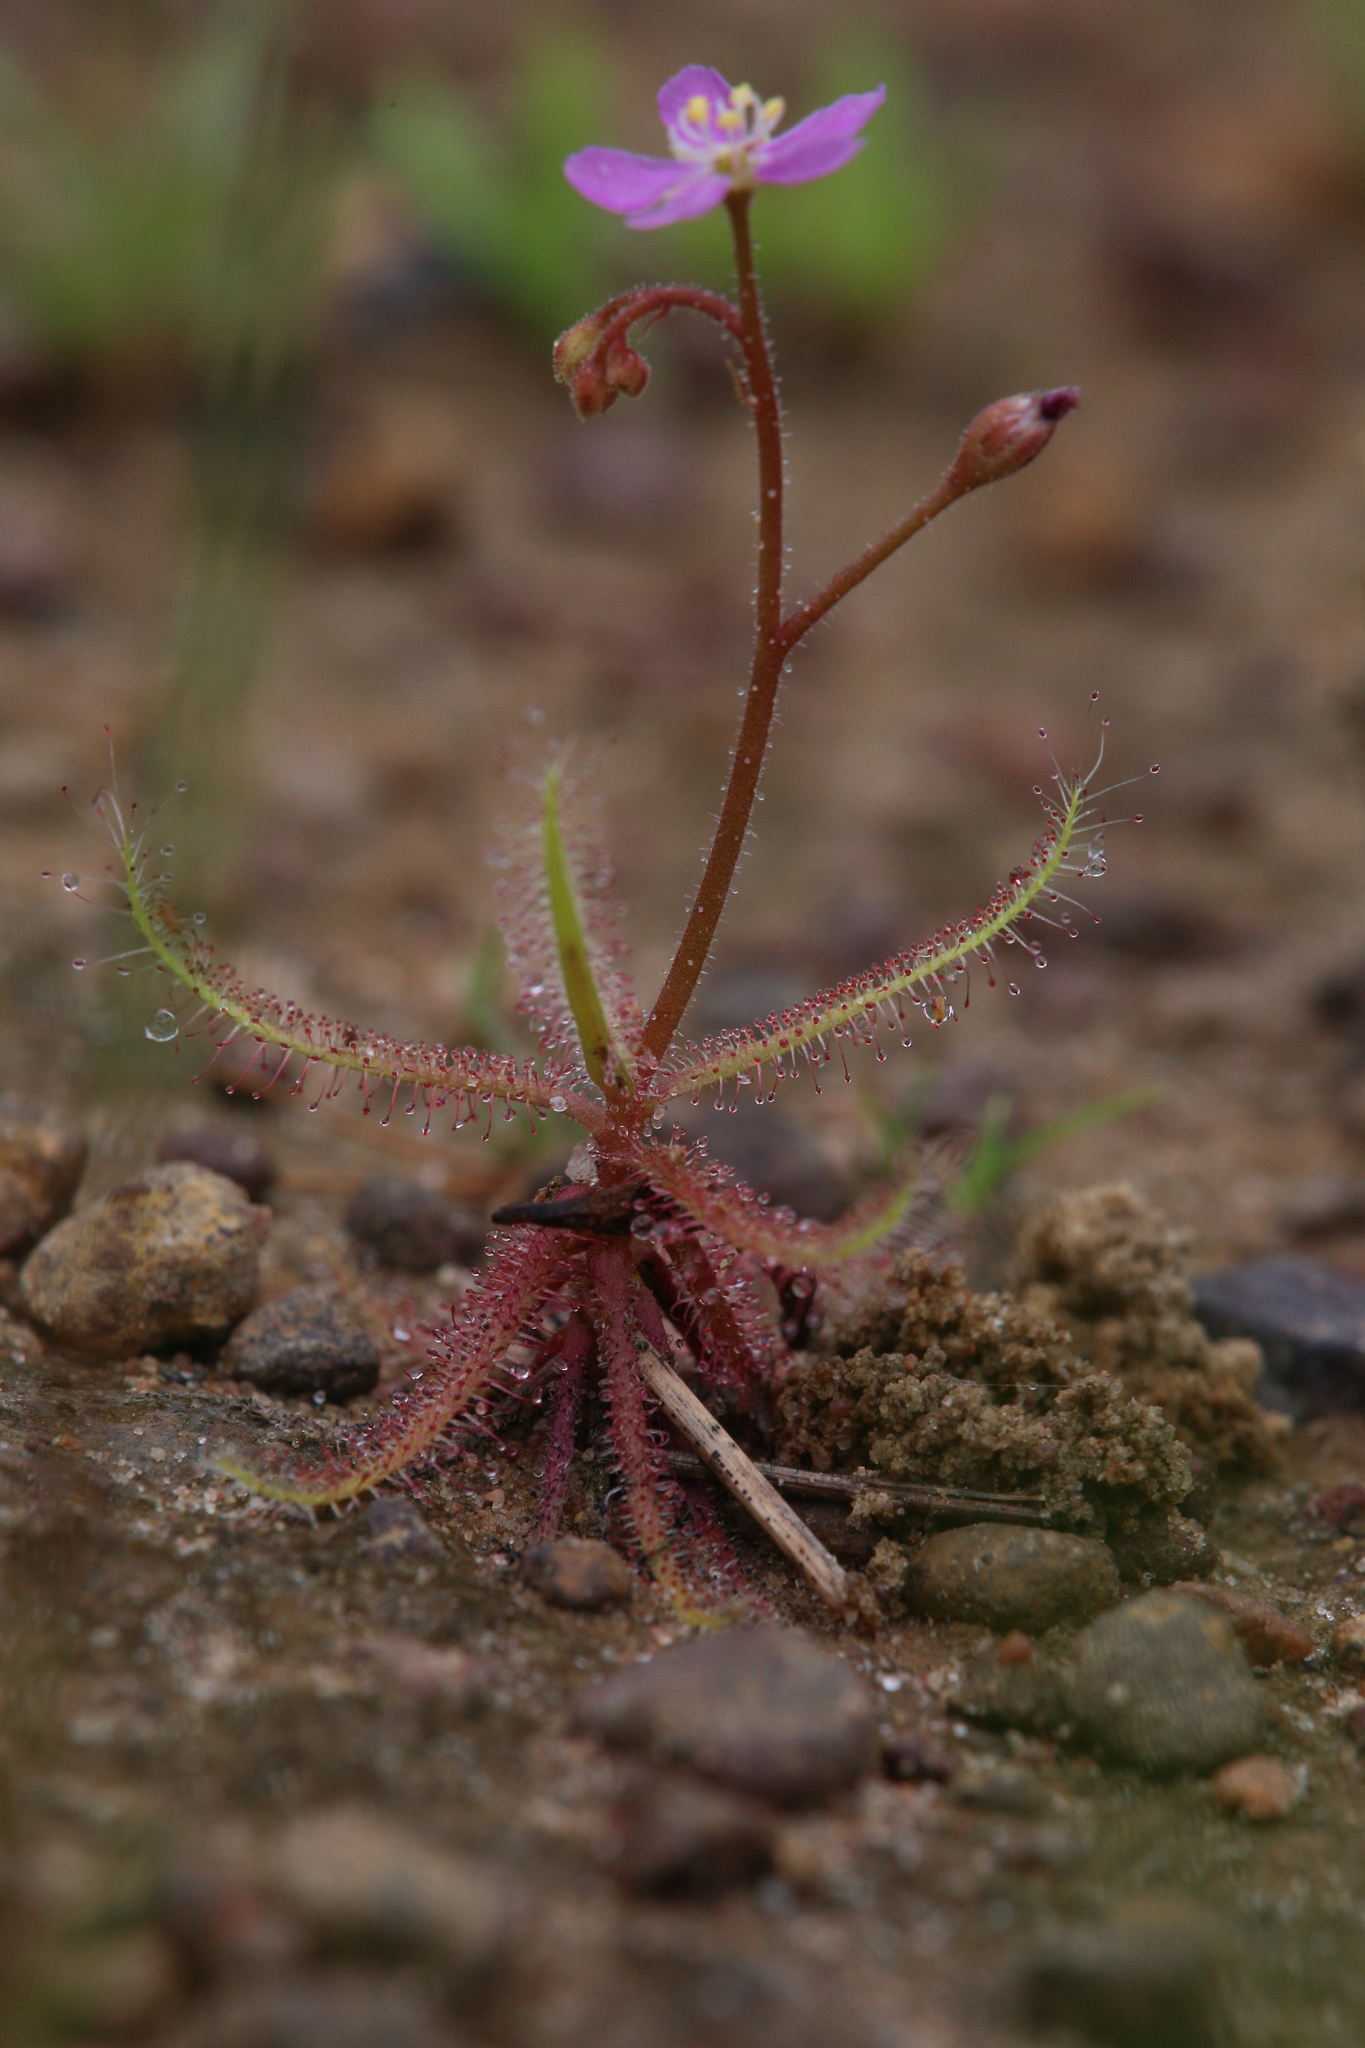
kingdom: Plantae
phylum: Tracheophyta
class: Magnoliopsida
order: Caryophyllales
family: Droseraceae
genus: Drosera
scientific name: Drosera nana
